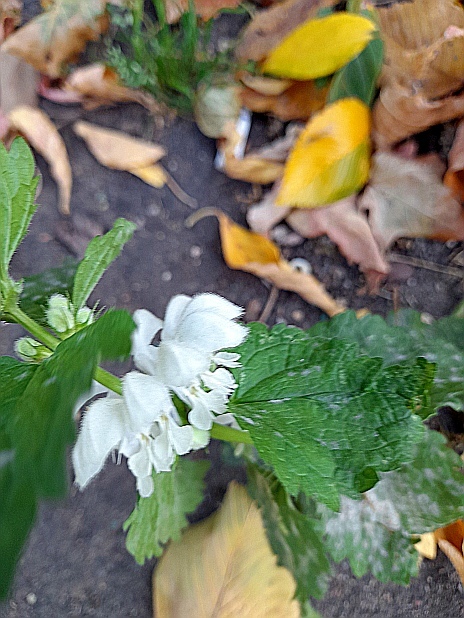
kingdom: Plantae
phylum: Tracheophyta
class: Magnoliopsida
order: Lamiales
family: Lamiaceae
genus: Lamium
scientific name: Lamium album
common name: White dead-nettle
